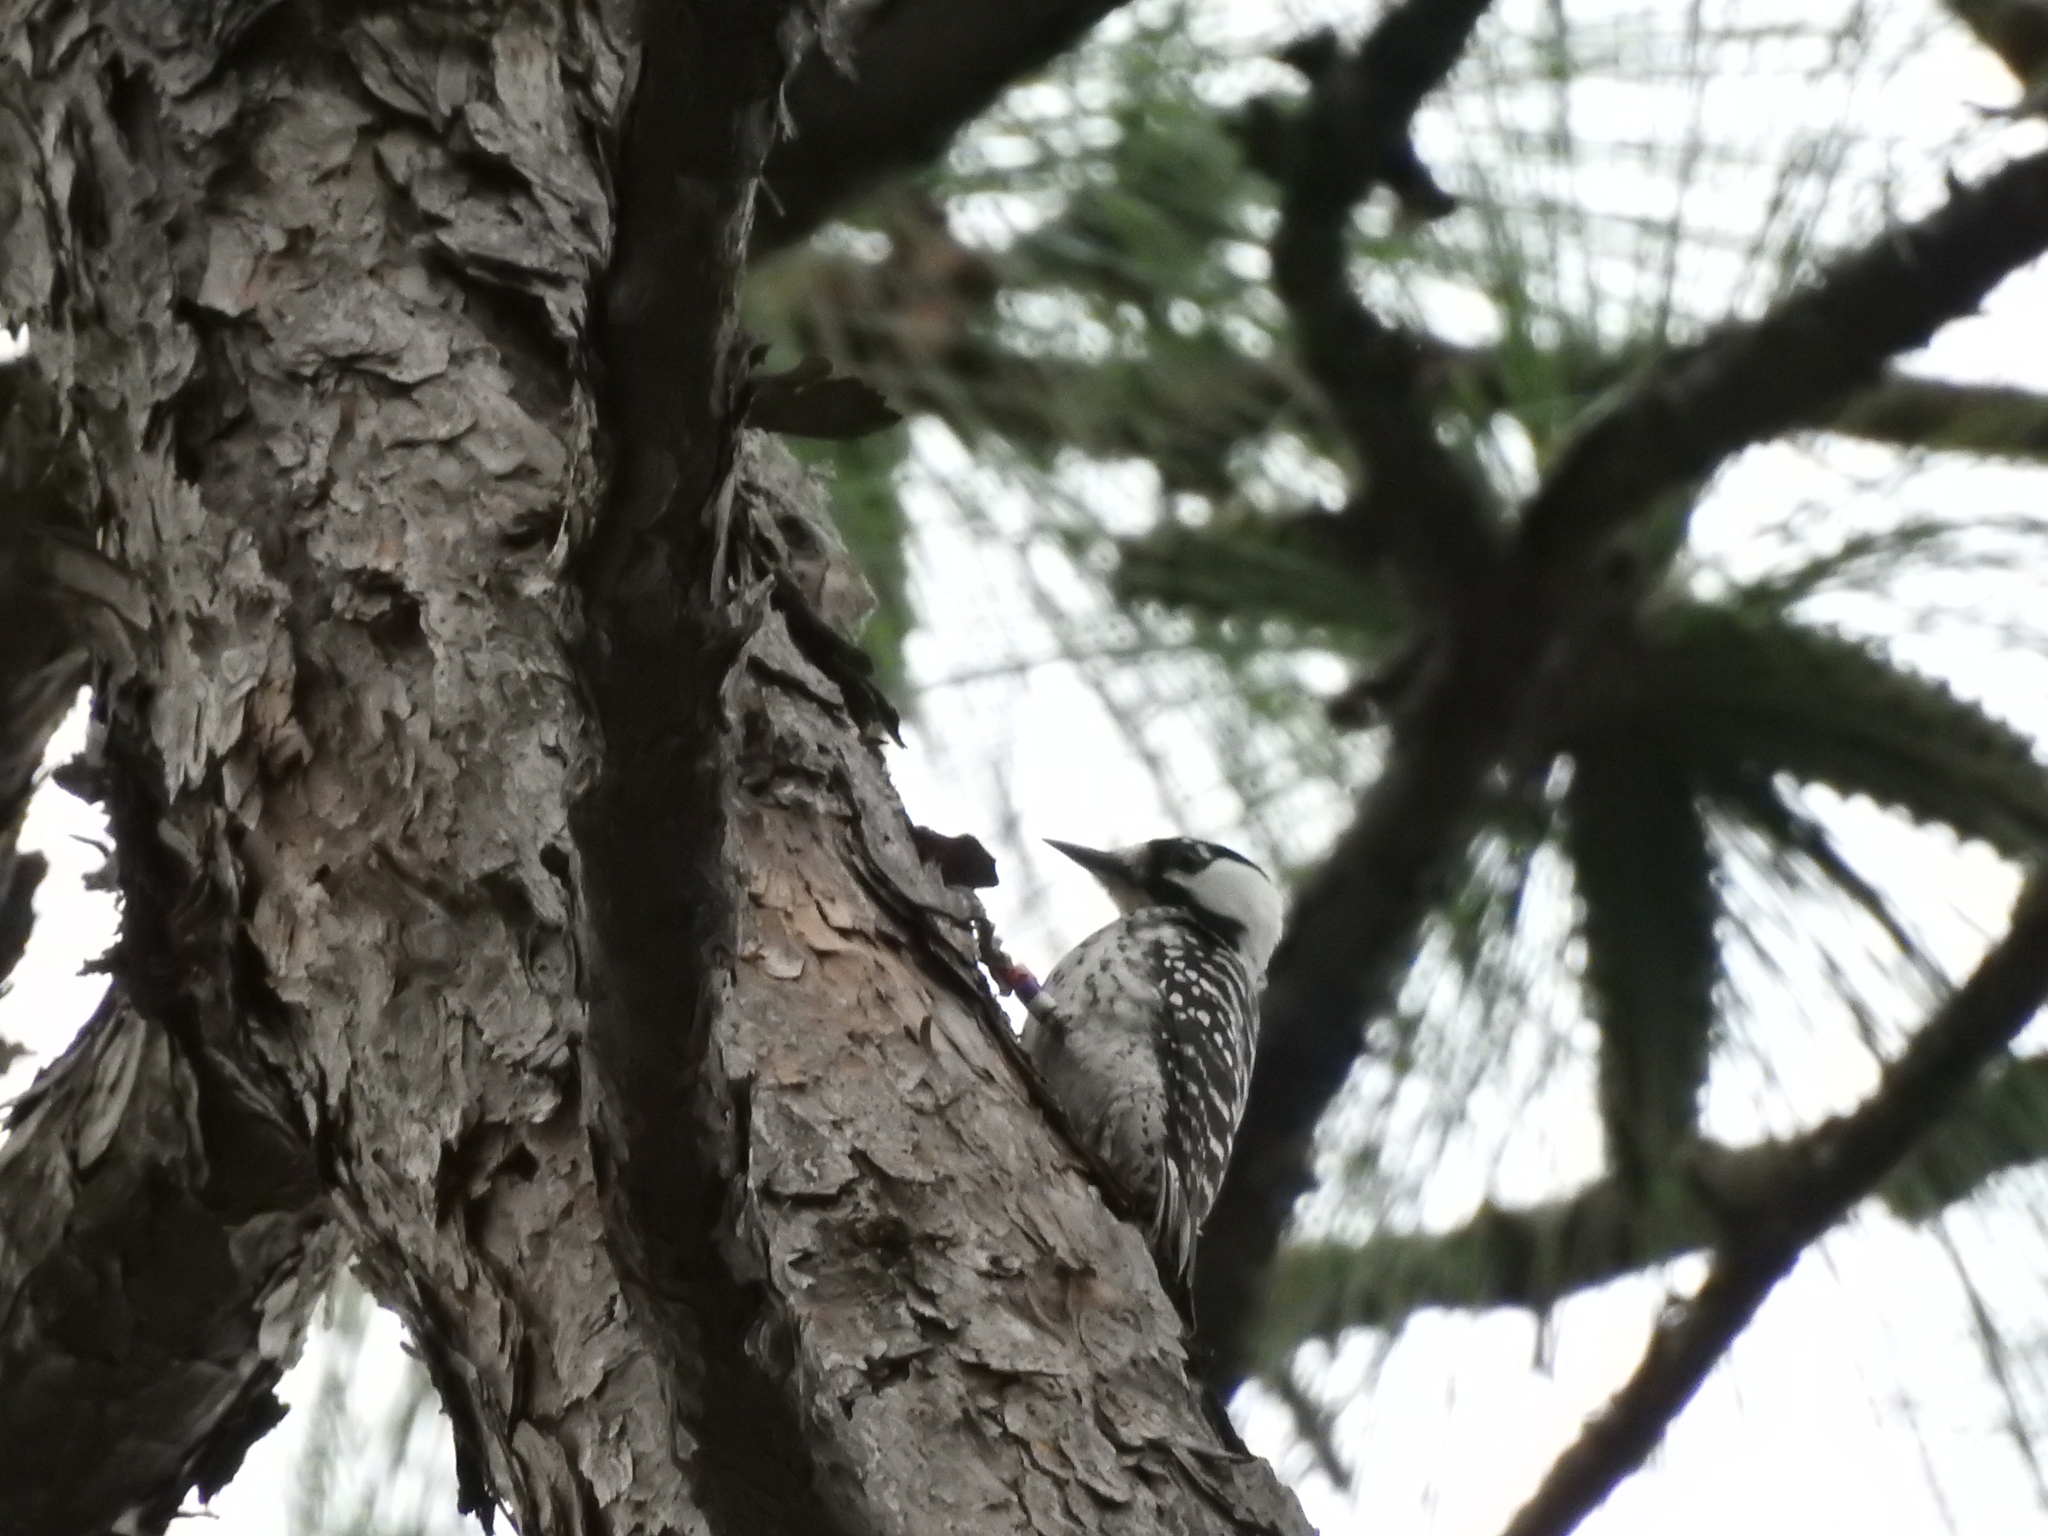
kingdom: Animalia
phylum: Chordata
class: Aves
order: Piciformes
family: Picidae
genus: Leuconotopicus
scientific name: Leuconotopicus borealis
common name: Red-cockaded woodpecker
